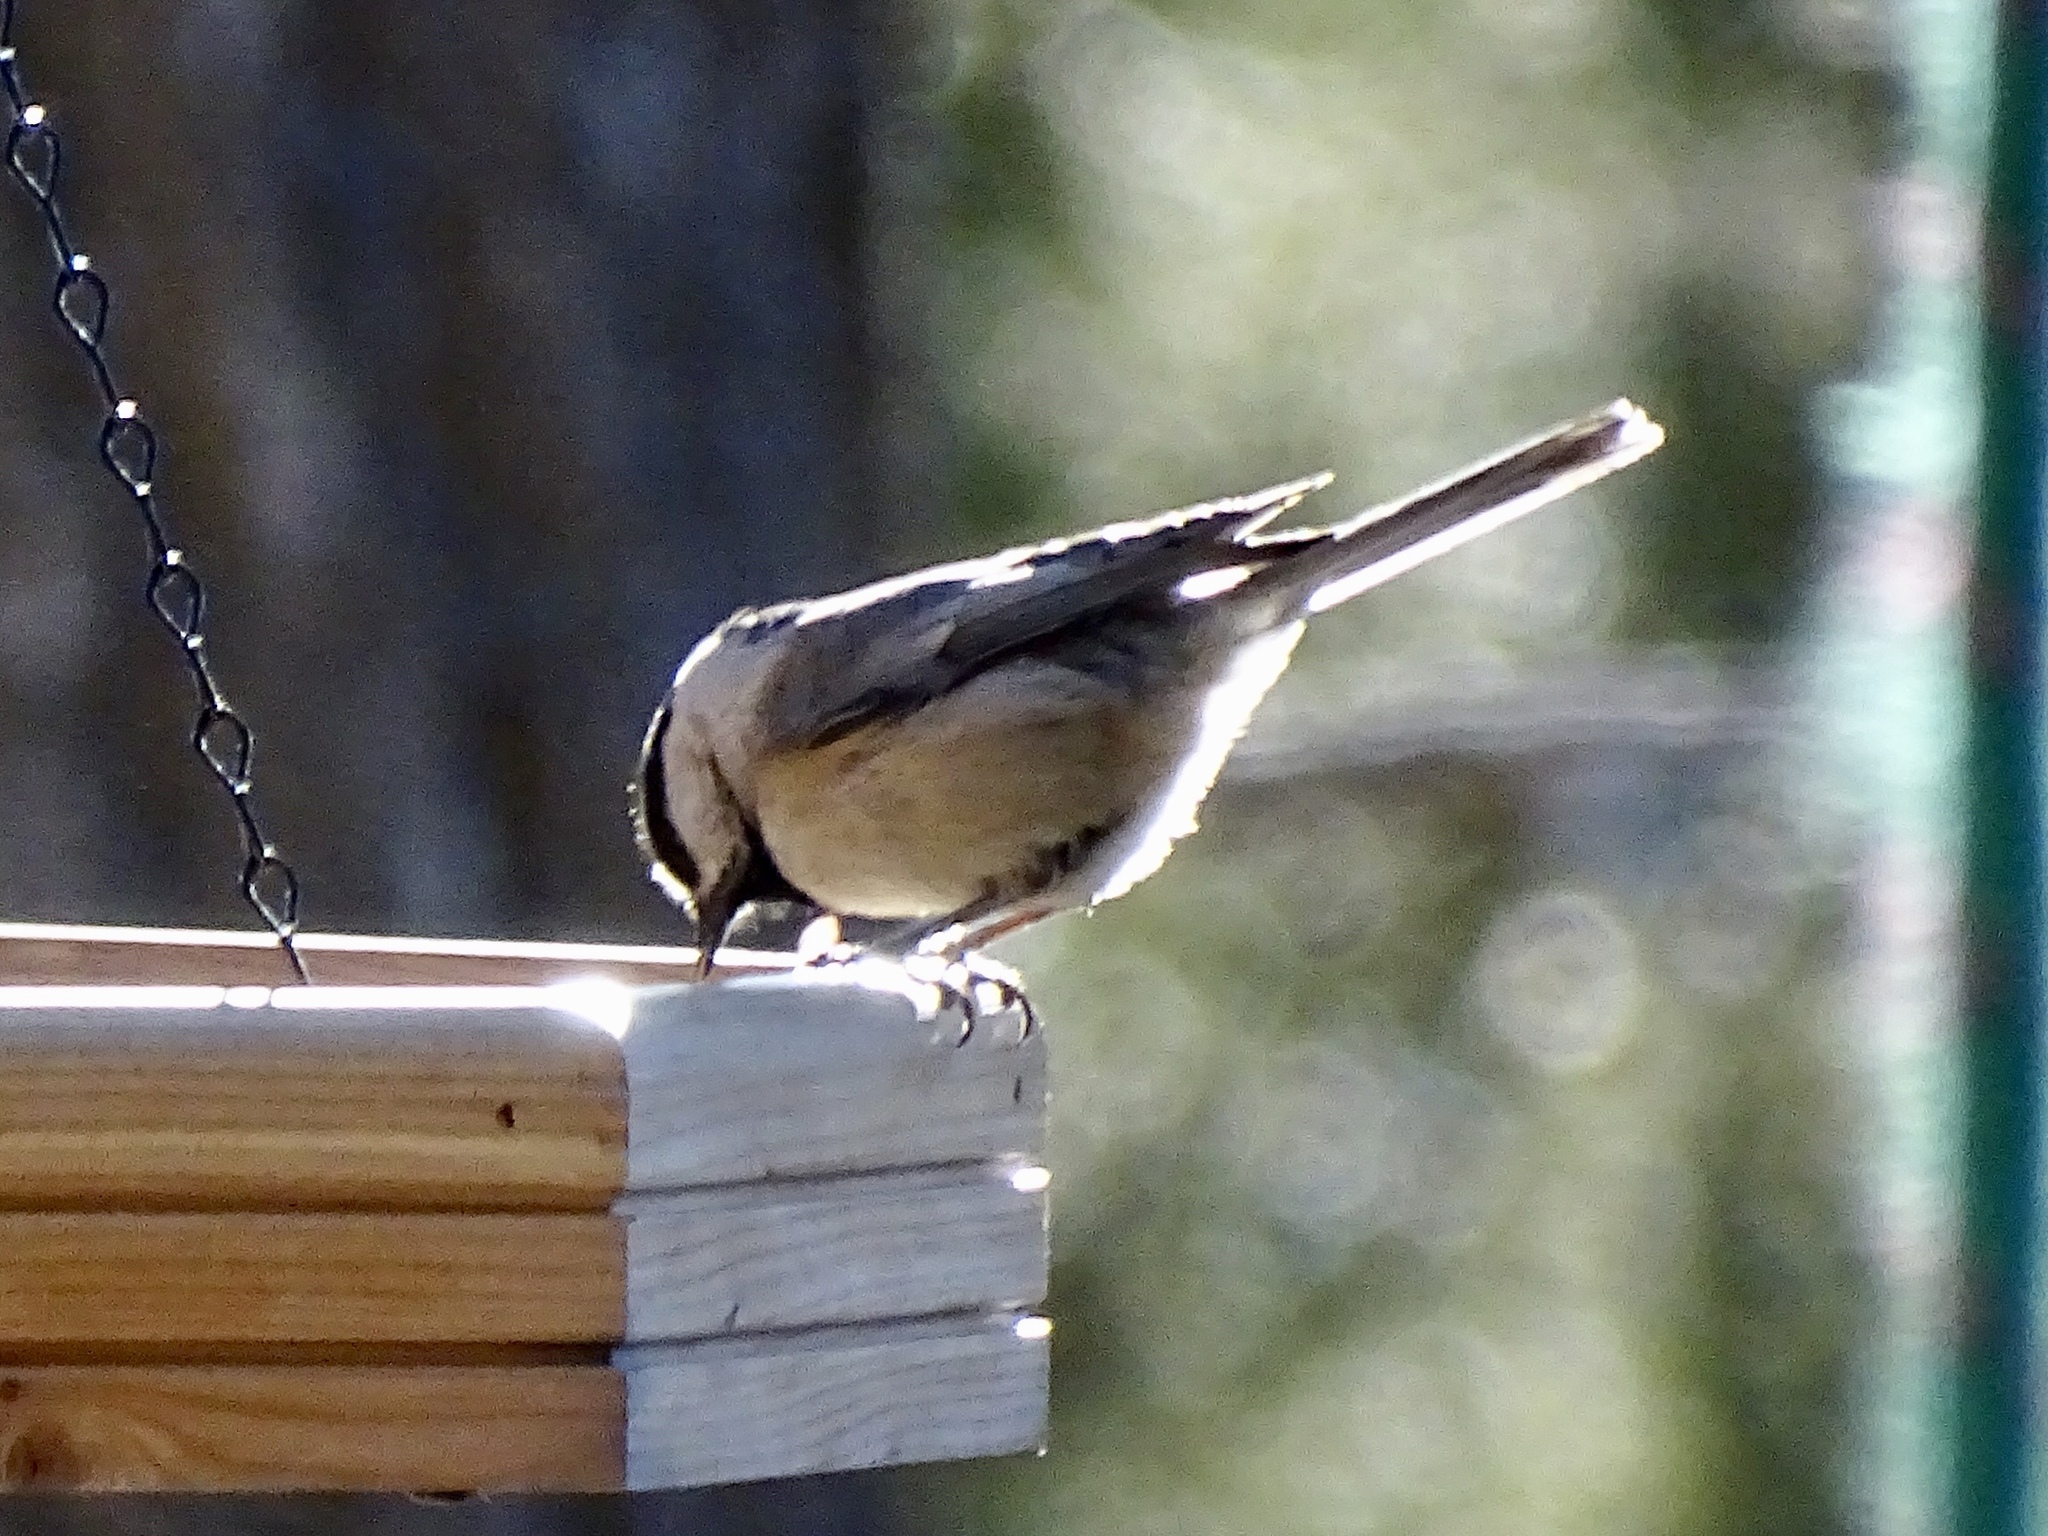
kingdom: Animalia
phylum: Chordata
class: Aves
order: Passeriformes
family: Paridae
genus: Poecile
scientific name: Poecile gambeli
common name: Mountain chickadee
